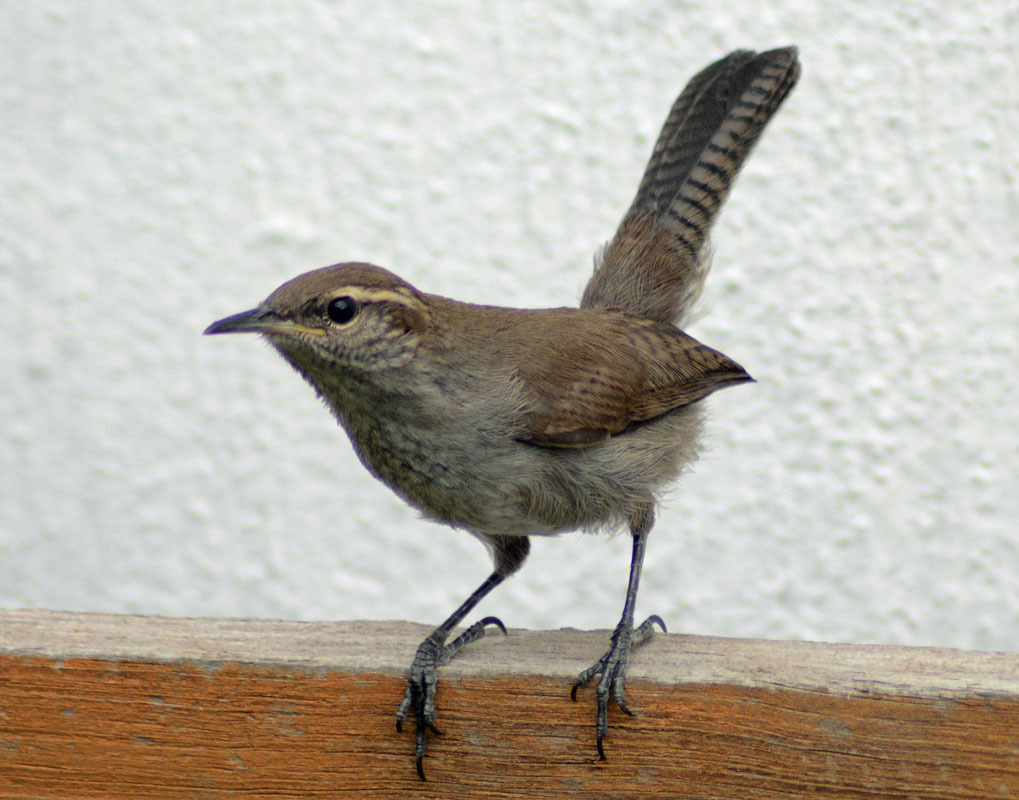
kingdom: Animalia
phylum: Chordata
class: Aves
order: Passeriformes
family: Troglodytidae
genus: Thryomanes
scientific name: Thryomanes bewickii
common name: Bewick's wren
